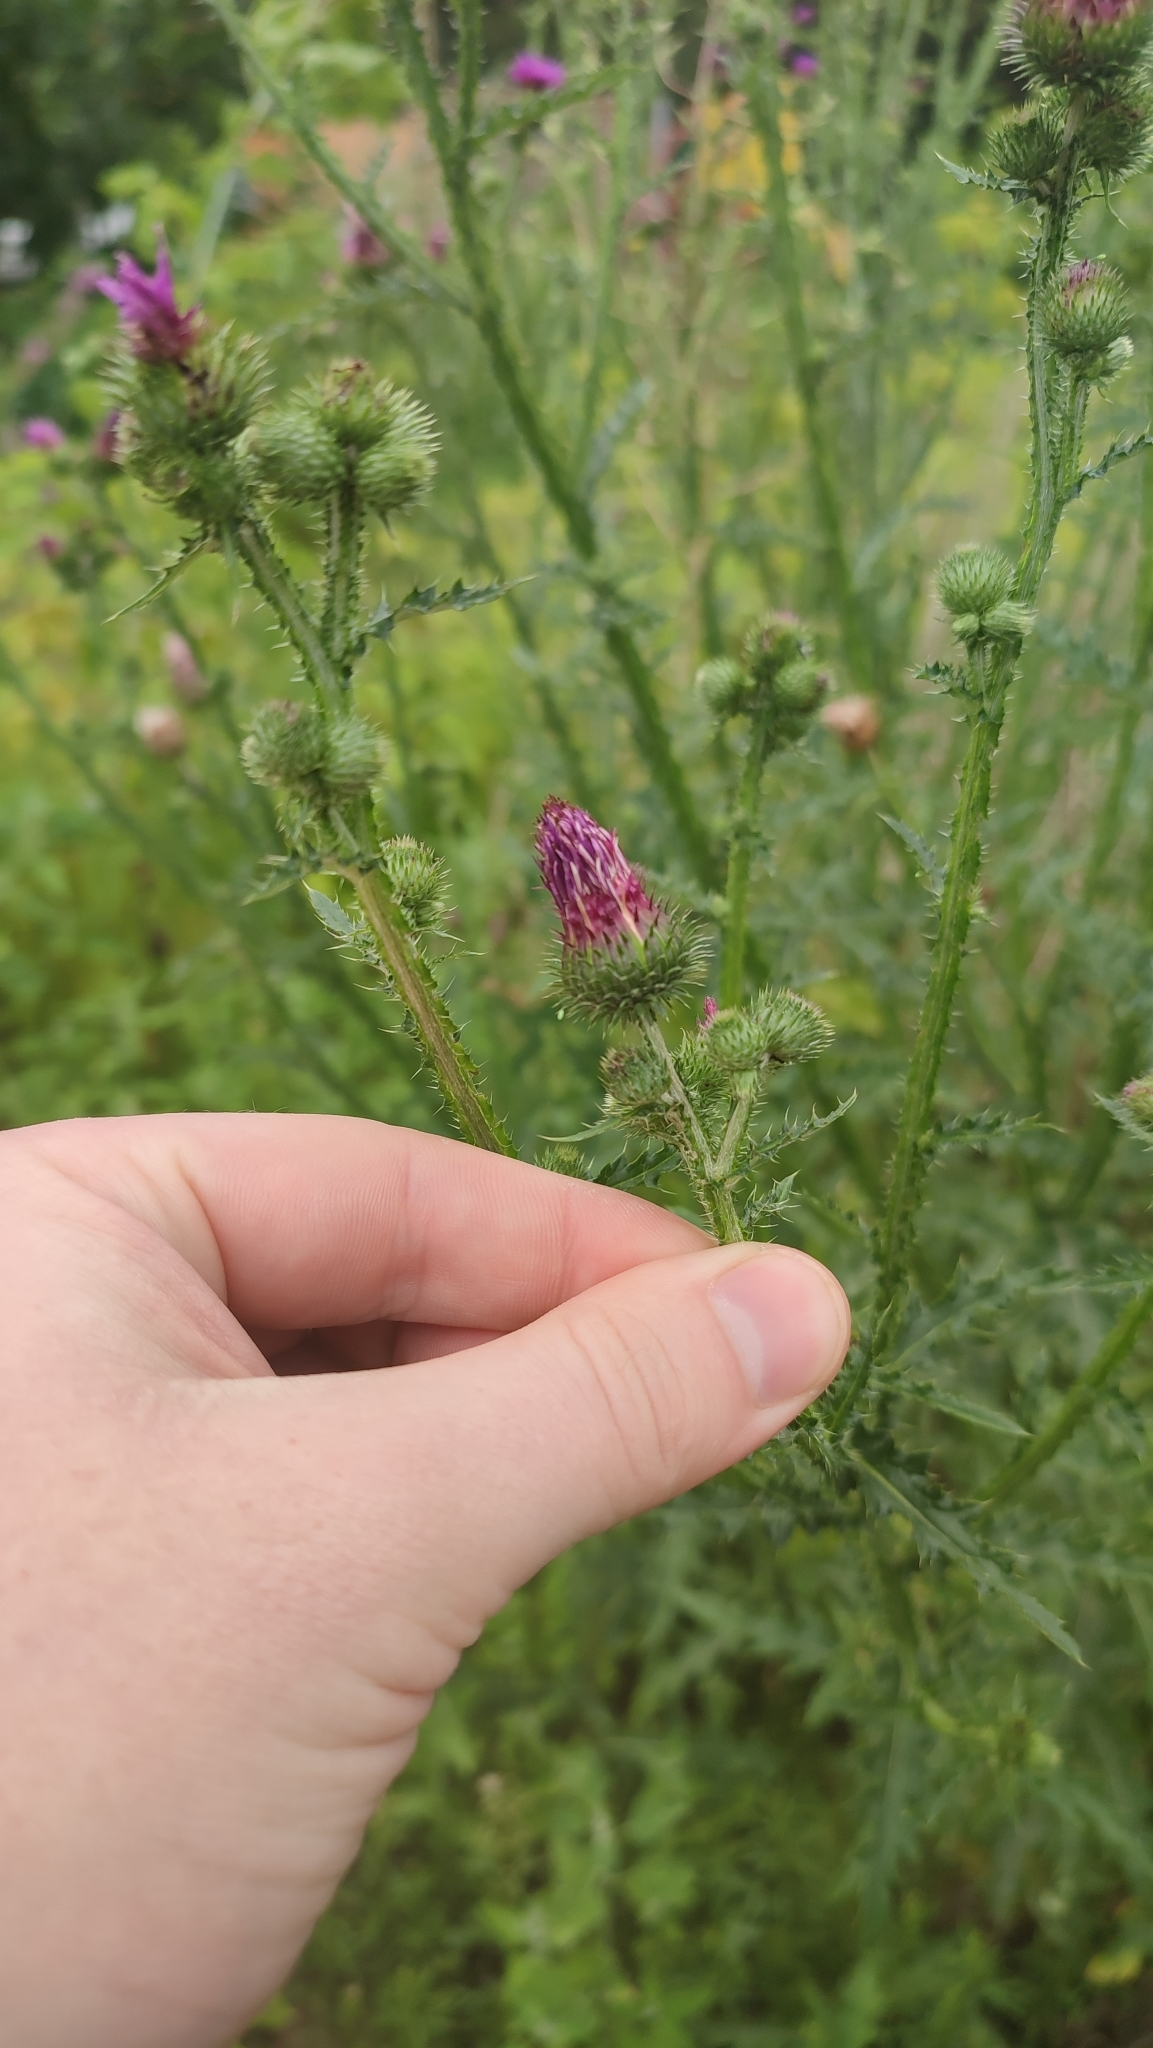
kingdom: Plantae
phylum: Tracheophyta
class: Magnoliopsida
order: Asterales
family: Asteraceae
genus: Carduus
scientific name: Carduus crispus
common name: Welted thistle
